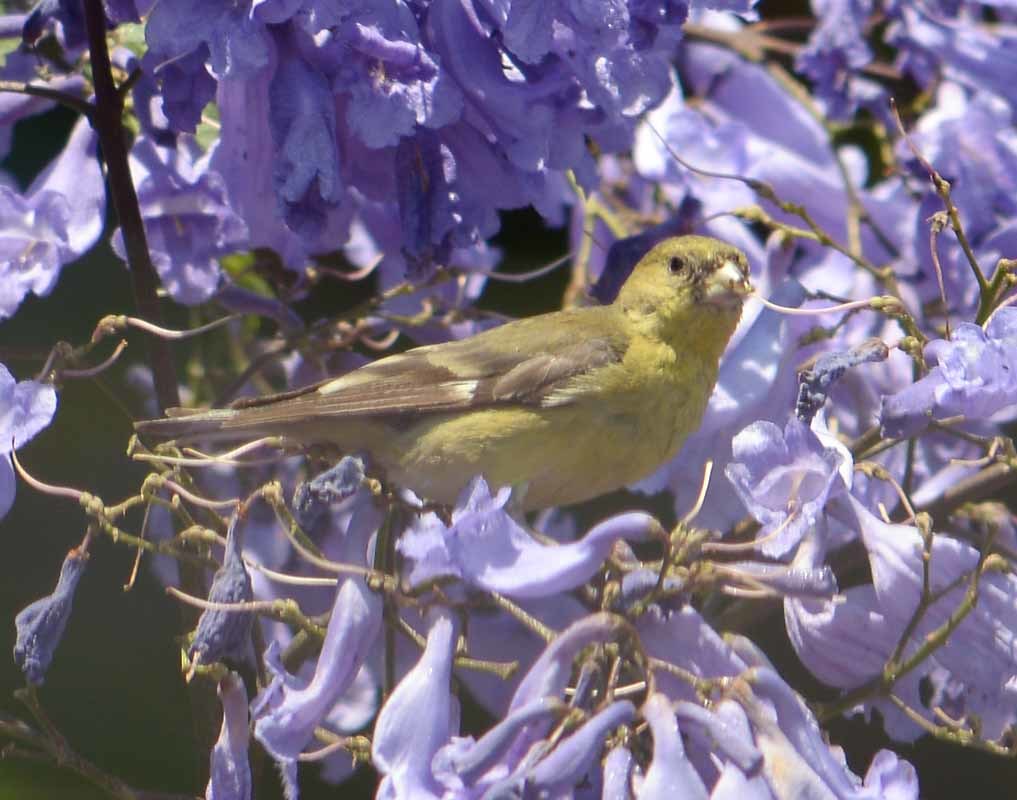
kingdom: Animalia
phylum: Chordata
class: Aves
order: Passeriformes
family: Fringillidae
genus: Spinus
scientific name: Spinus psaltria
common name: Lesser goldfinch
